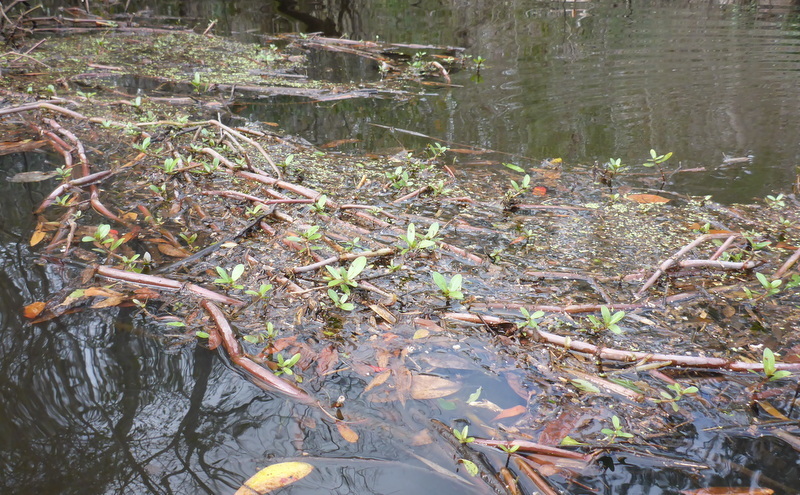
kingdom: Plantae
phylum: Tracheophyta
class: Magnoliopsida
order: Caryophyllales
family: Amaranthaceae
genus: Alternanthera
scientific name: Alternanthera philoxeroides
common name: Alligatorweed
